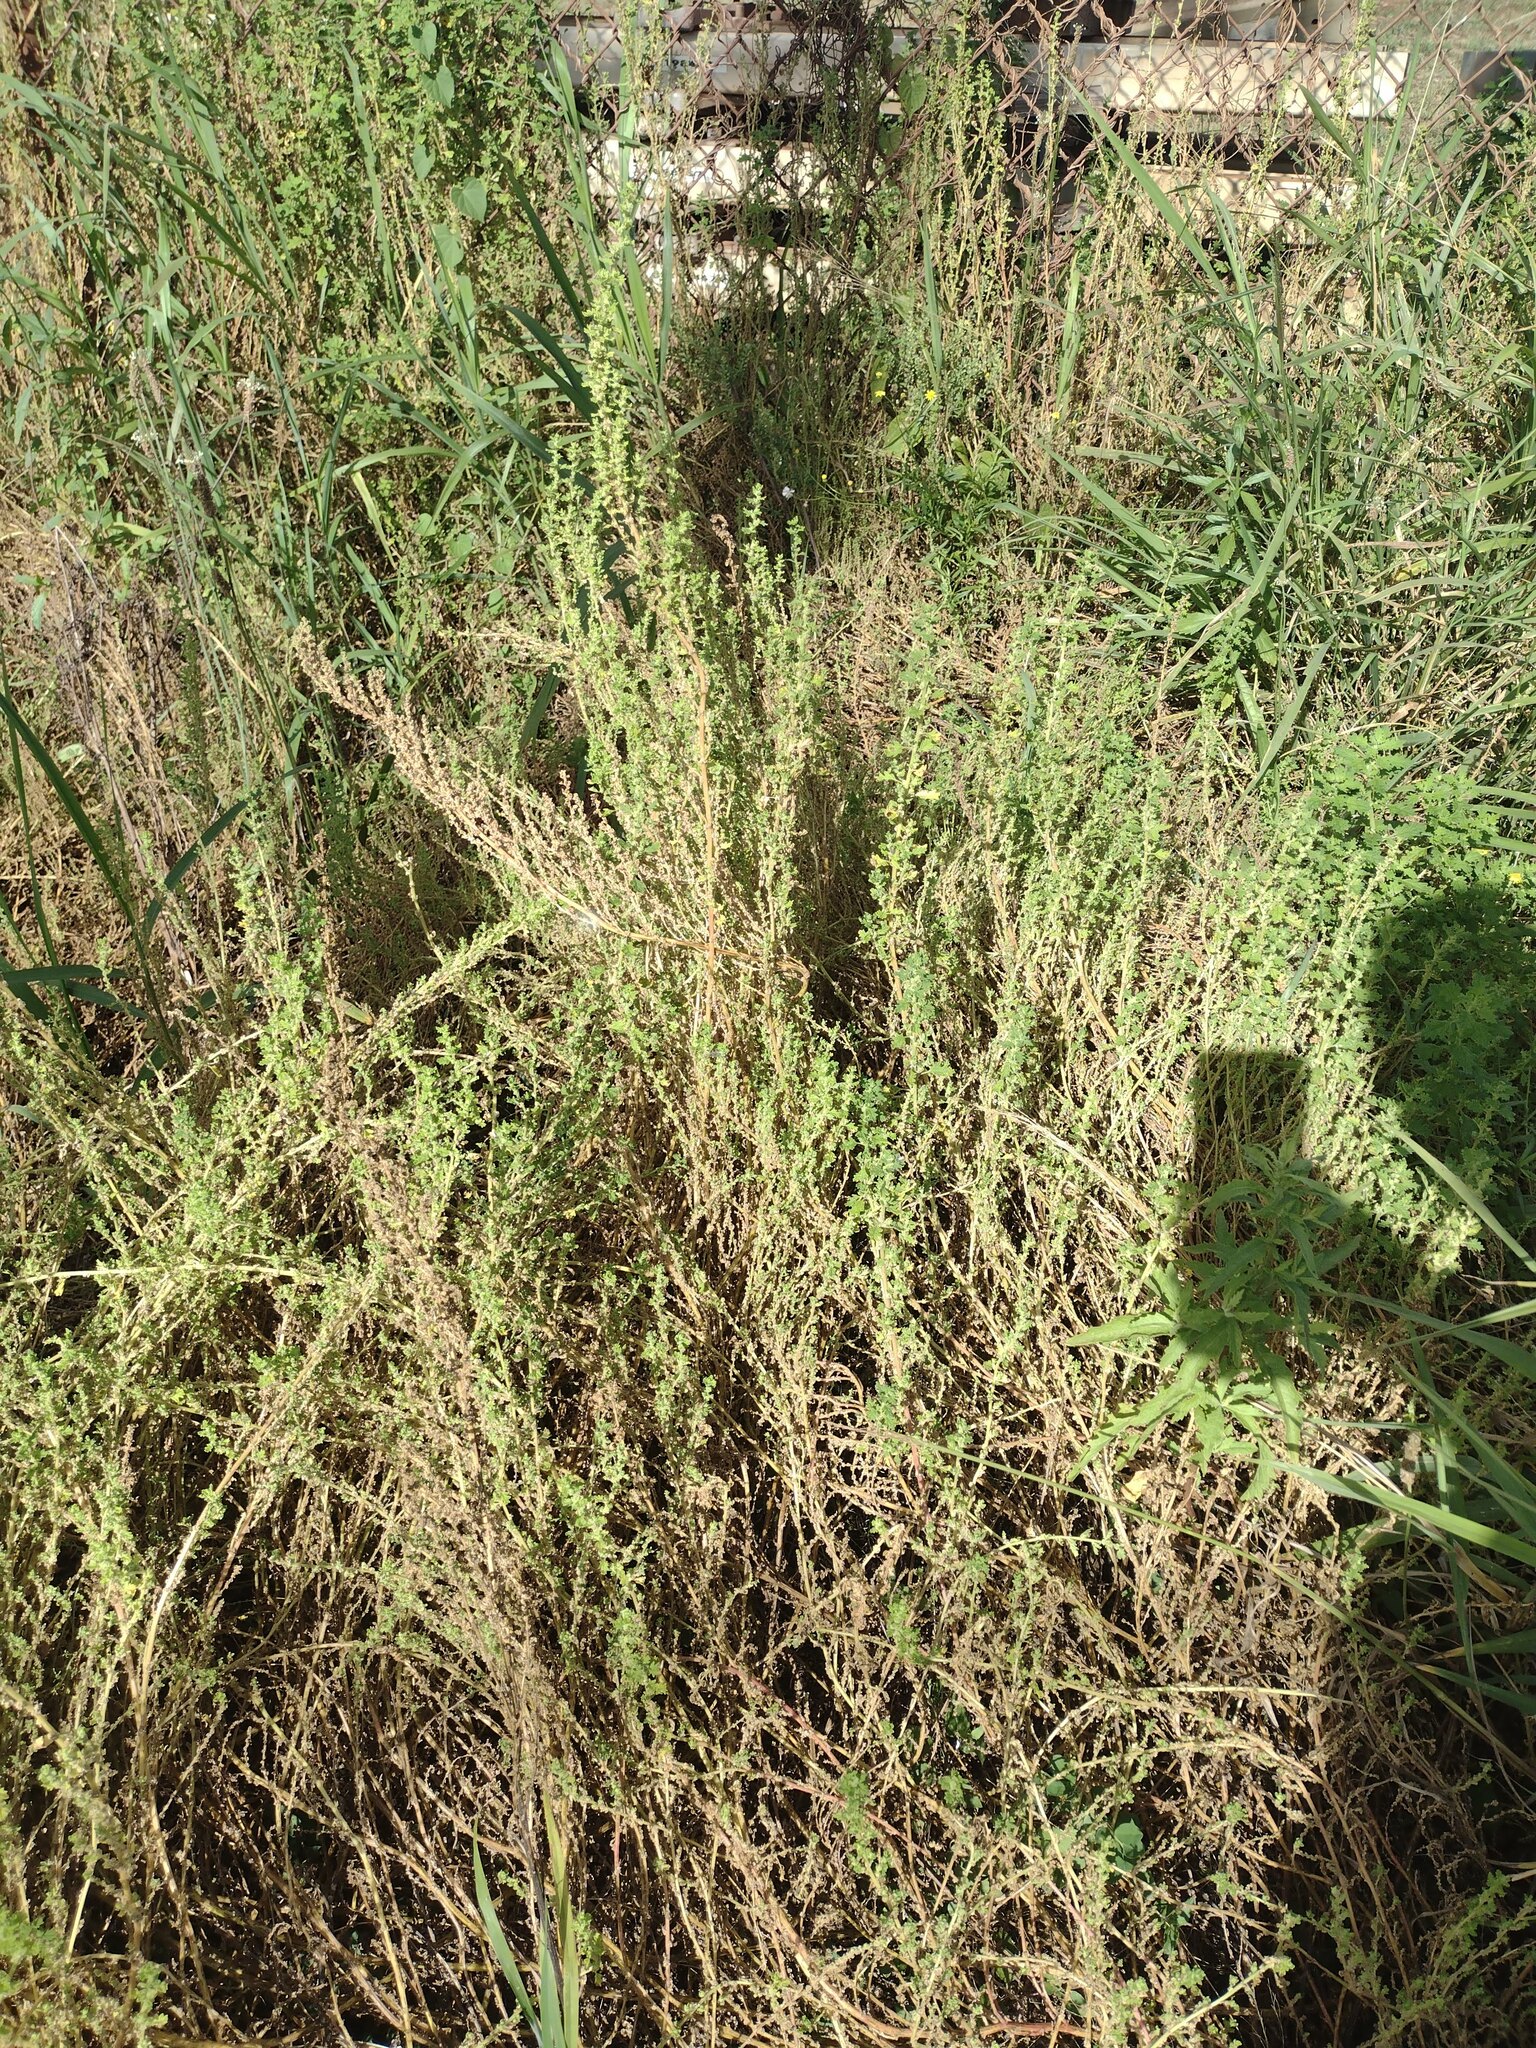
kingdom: Plantae
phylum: Tracheophyta
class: Magnoliopsida
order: Caryophyllales
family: Amaranthaceae
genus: Dysphania
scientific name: Dysphania carinata
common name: Keeled wormseed
